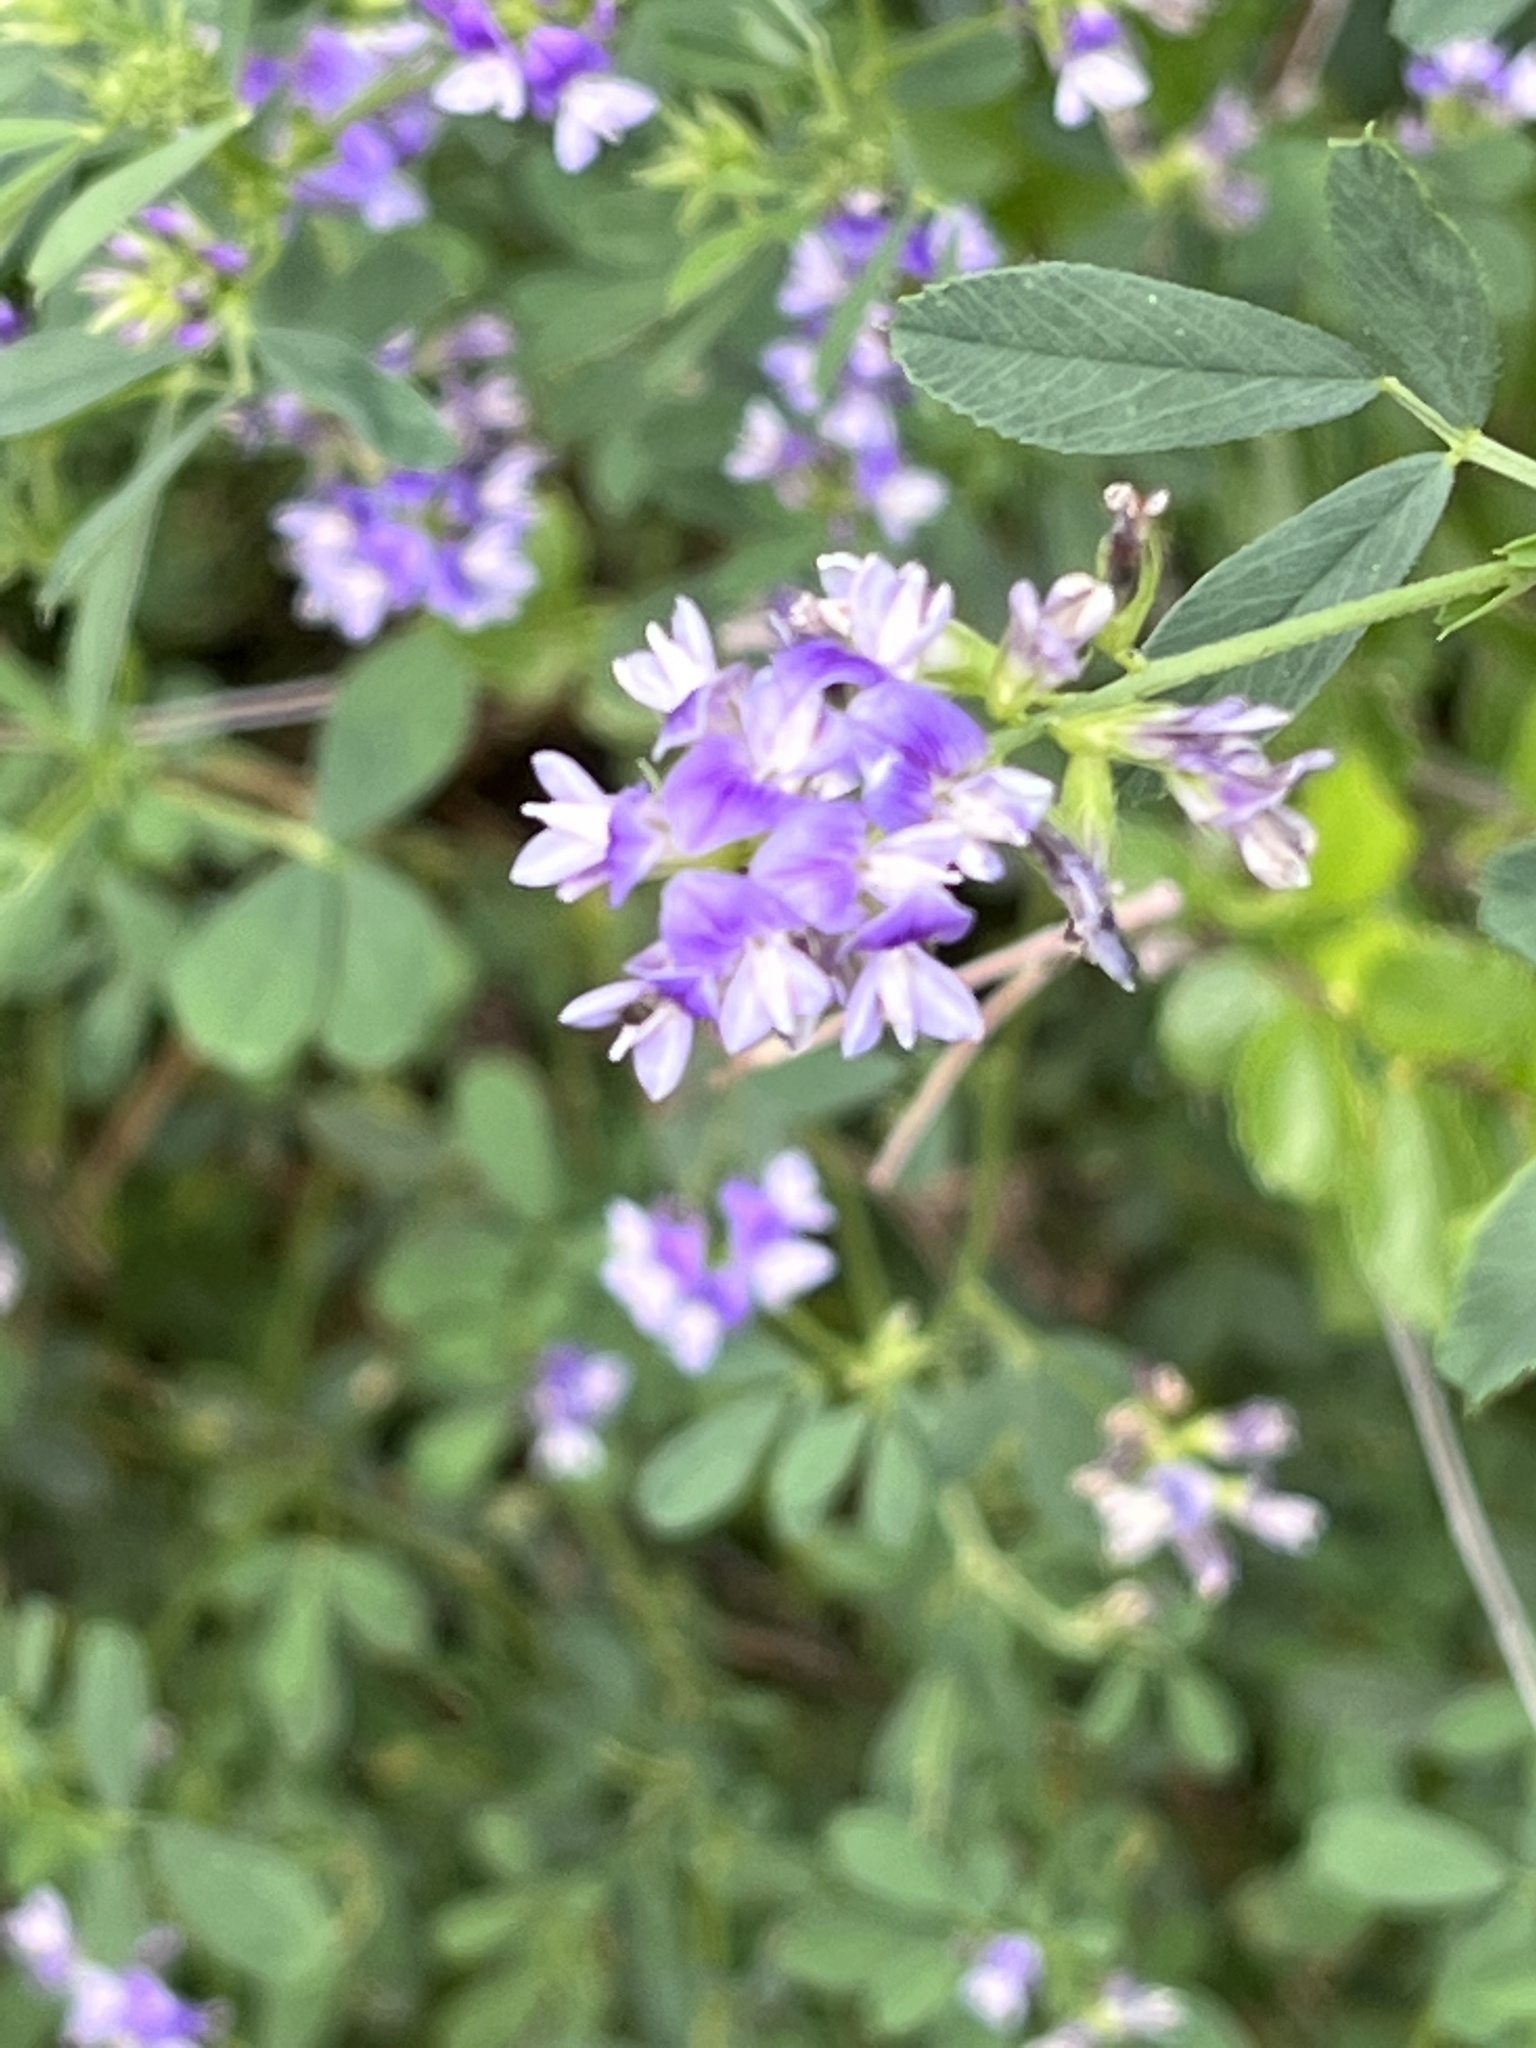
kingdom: Plantae
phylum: Tracheophyta
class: Magnoliopsida
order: Fabales
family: Fabaceae
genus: Medicago
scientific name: Medicago sativa
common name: Alfalfa
